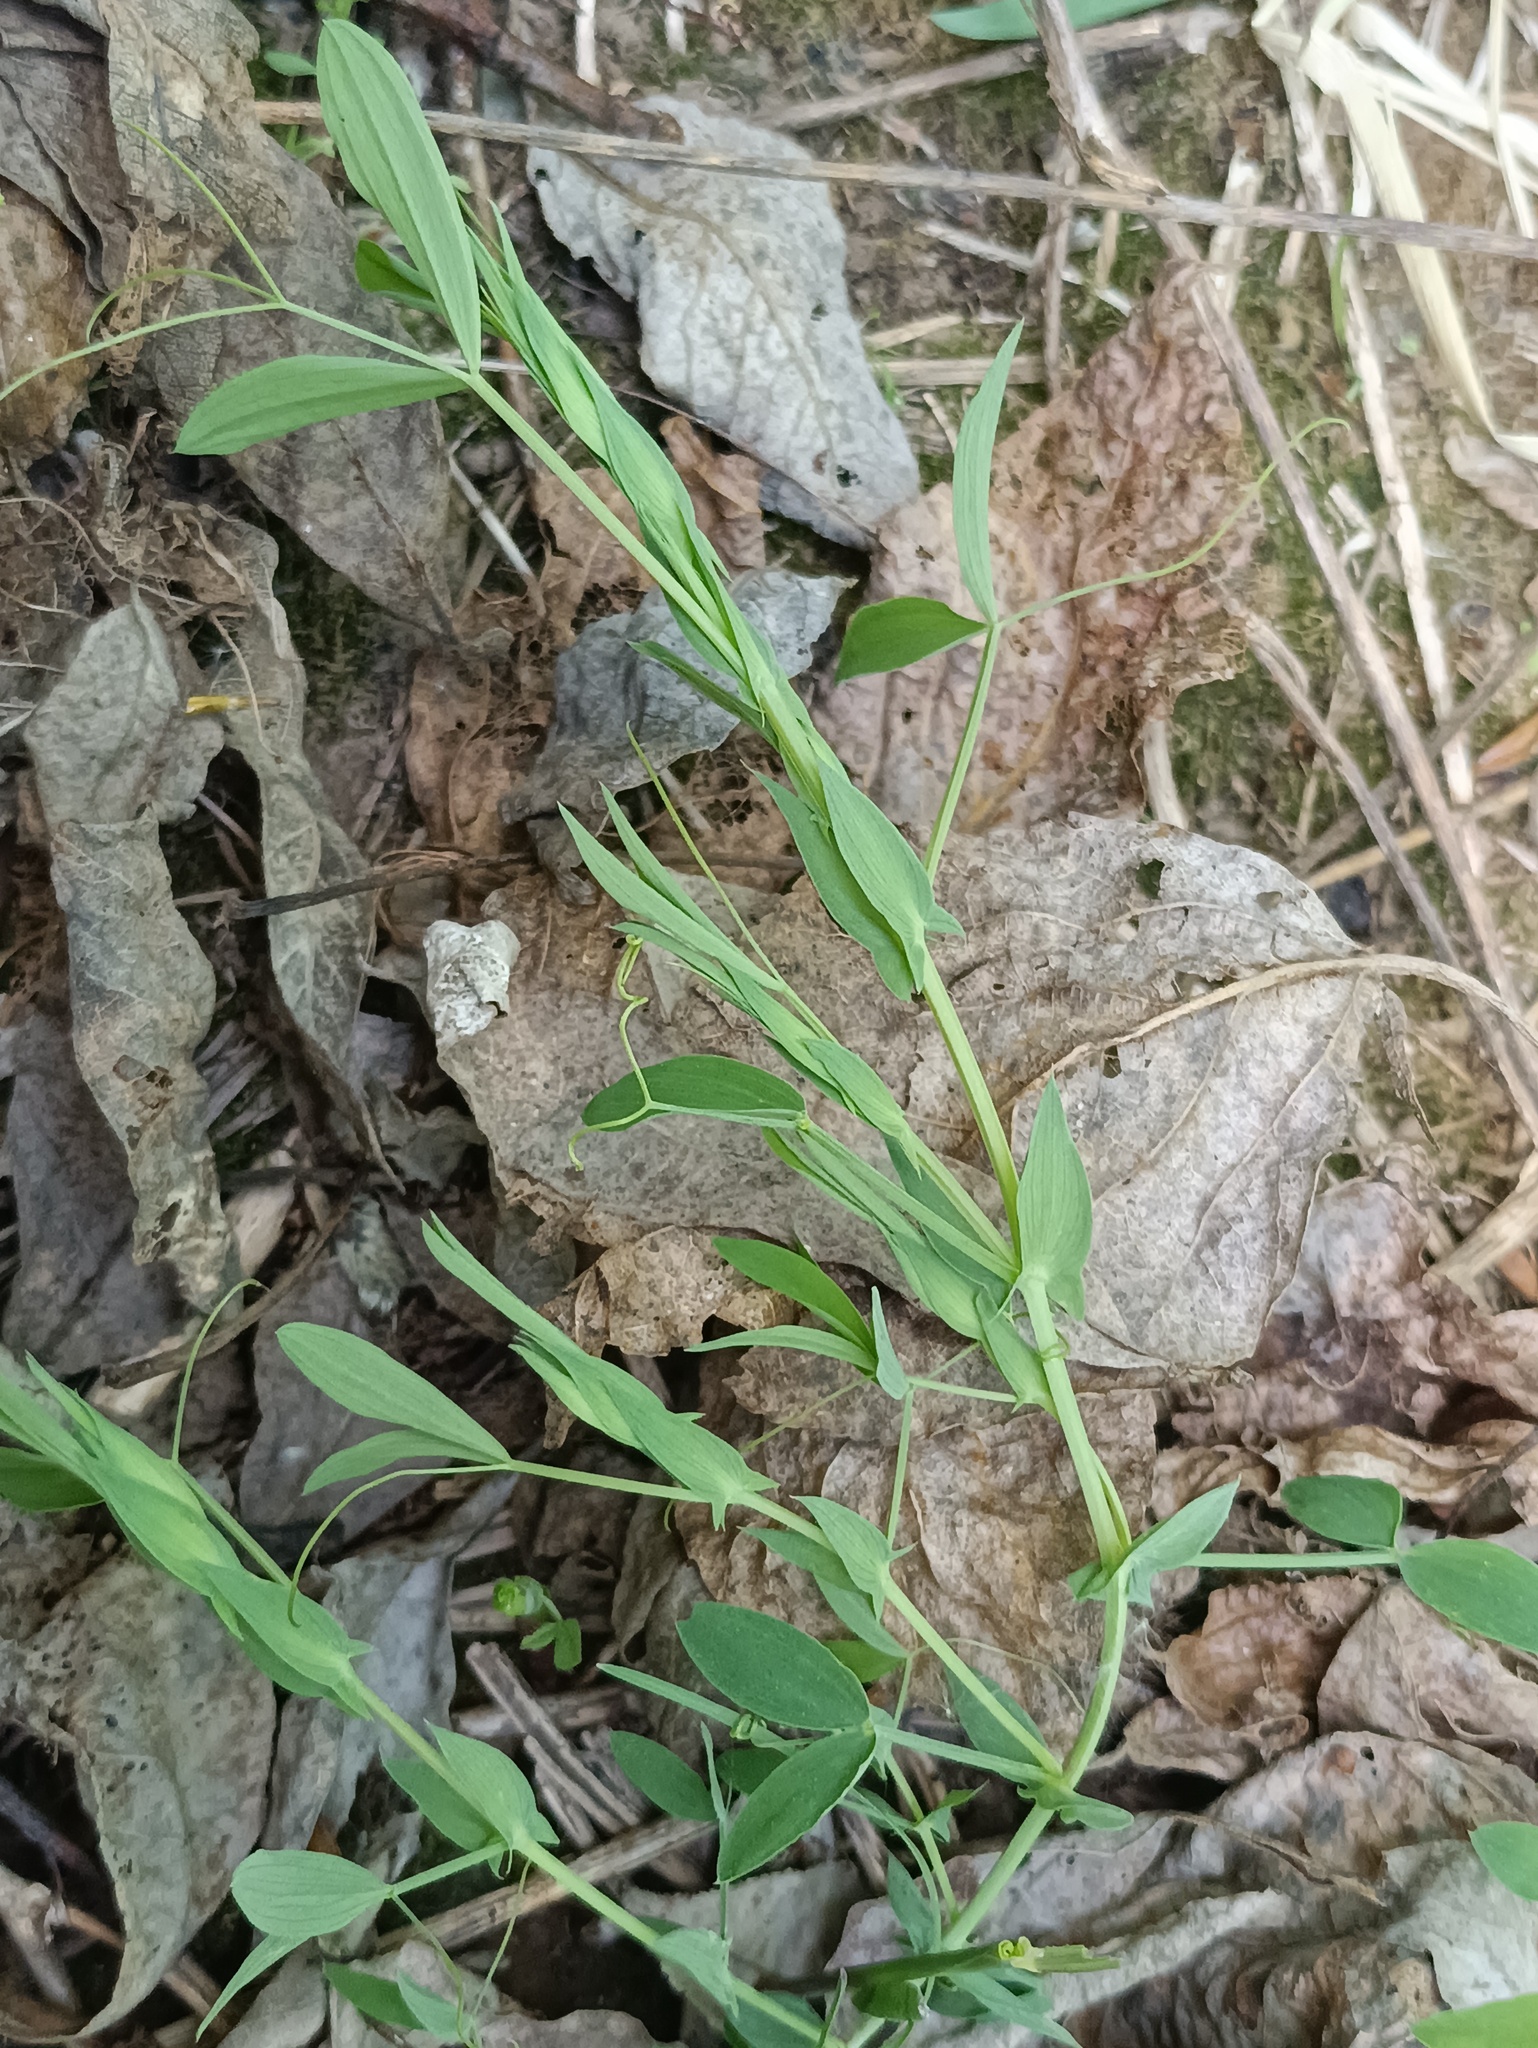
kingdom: Plantae
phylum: Tracheophyta
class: Magnoliopsida
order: Fabales
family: Fabaceae
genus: Lathyrus
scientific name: Lathyrus pratensis
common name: Meadow vetchling
